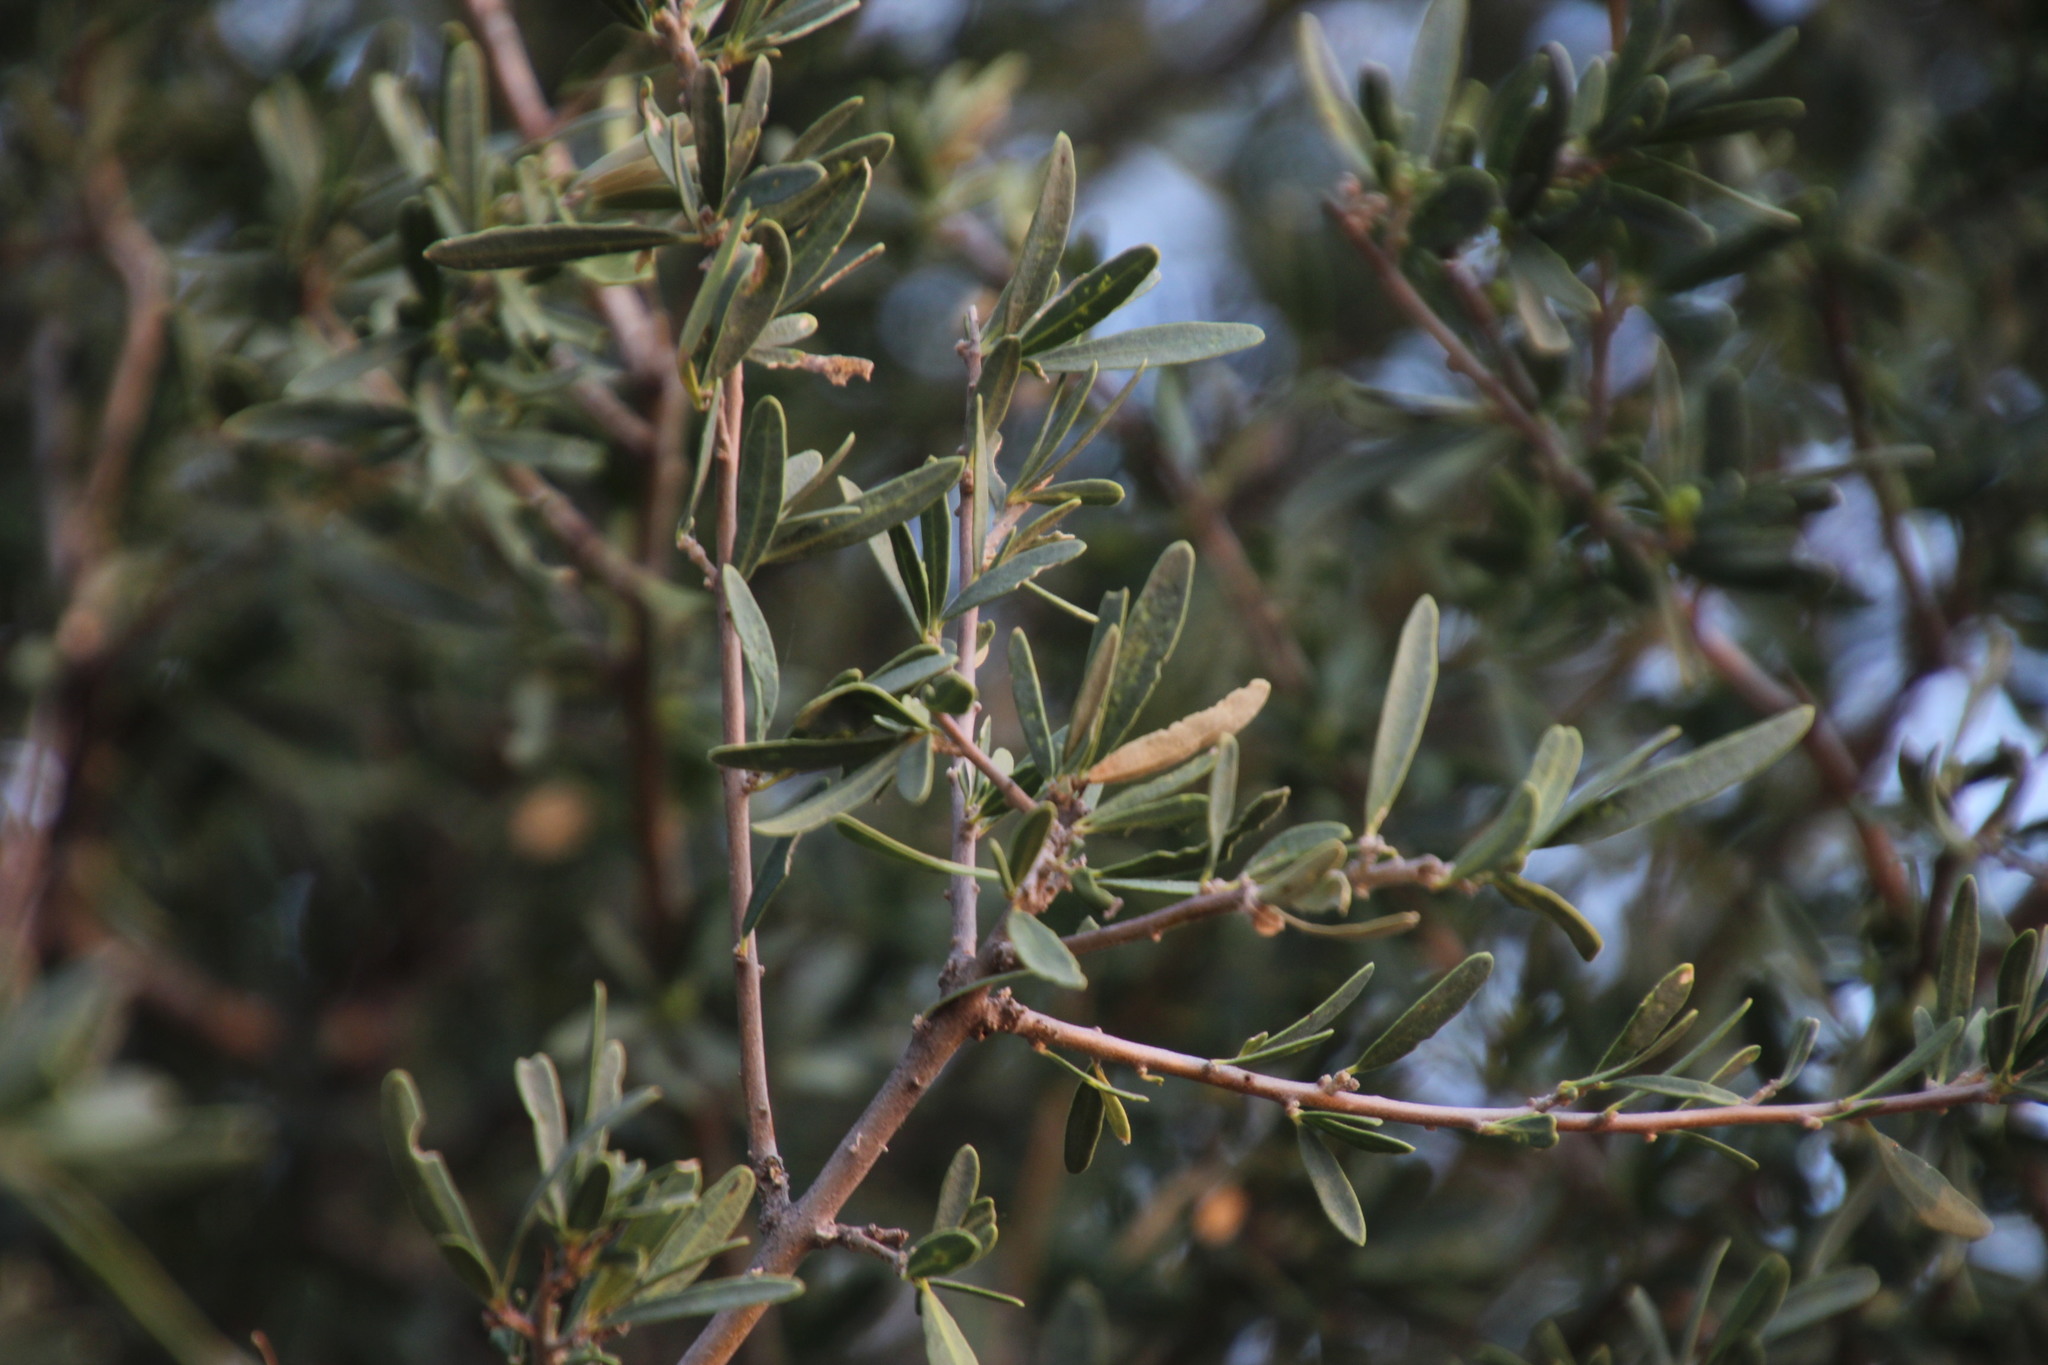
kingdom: Plantae
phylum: Tracheophyta
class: Magnoliopsida
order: Brassicales
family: Capparaceae
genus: Boscia
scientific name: Boscia albitrunca
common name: Caper bush
